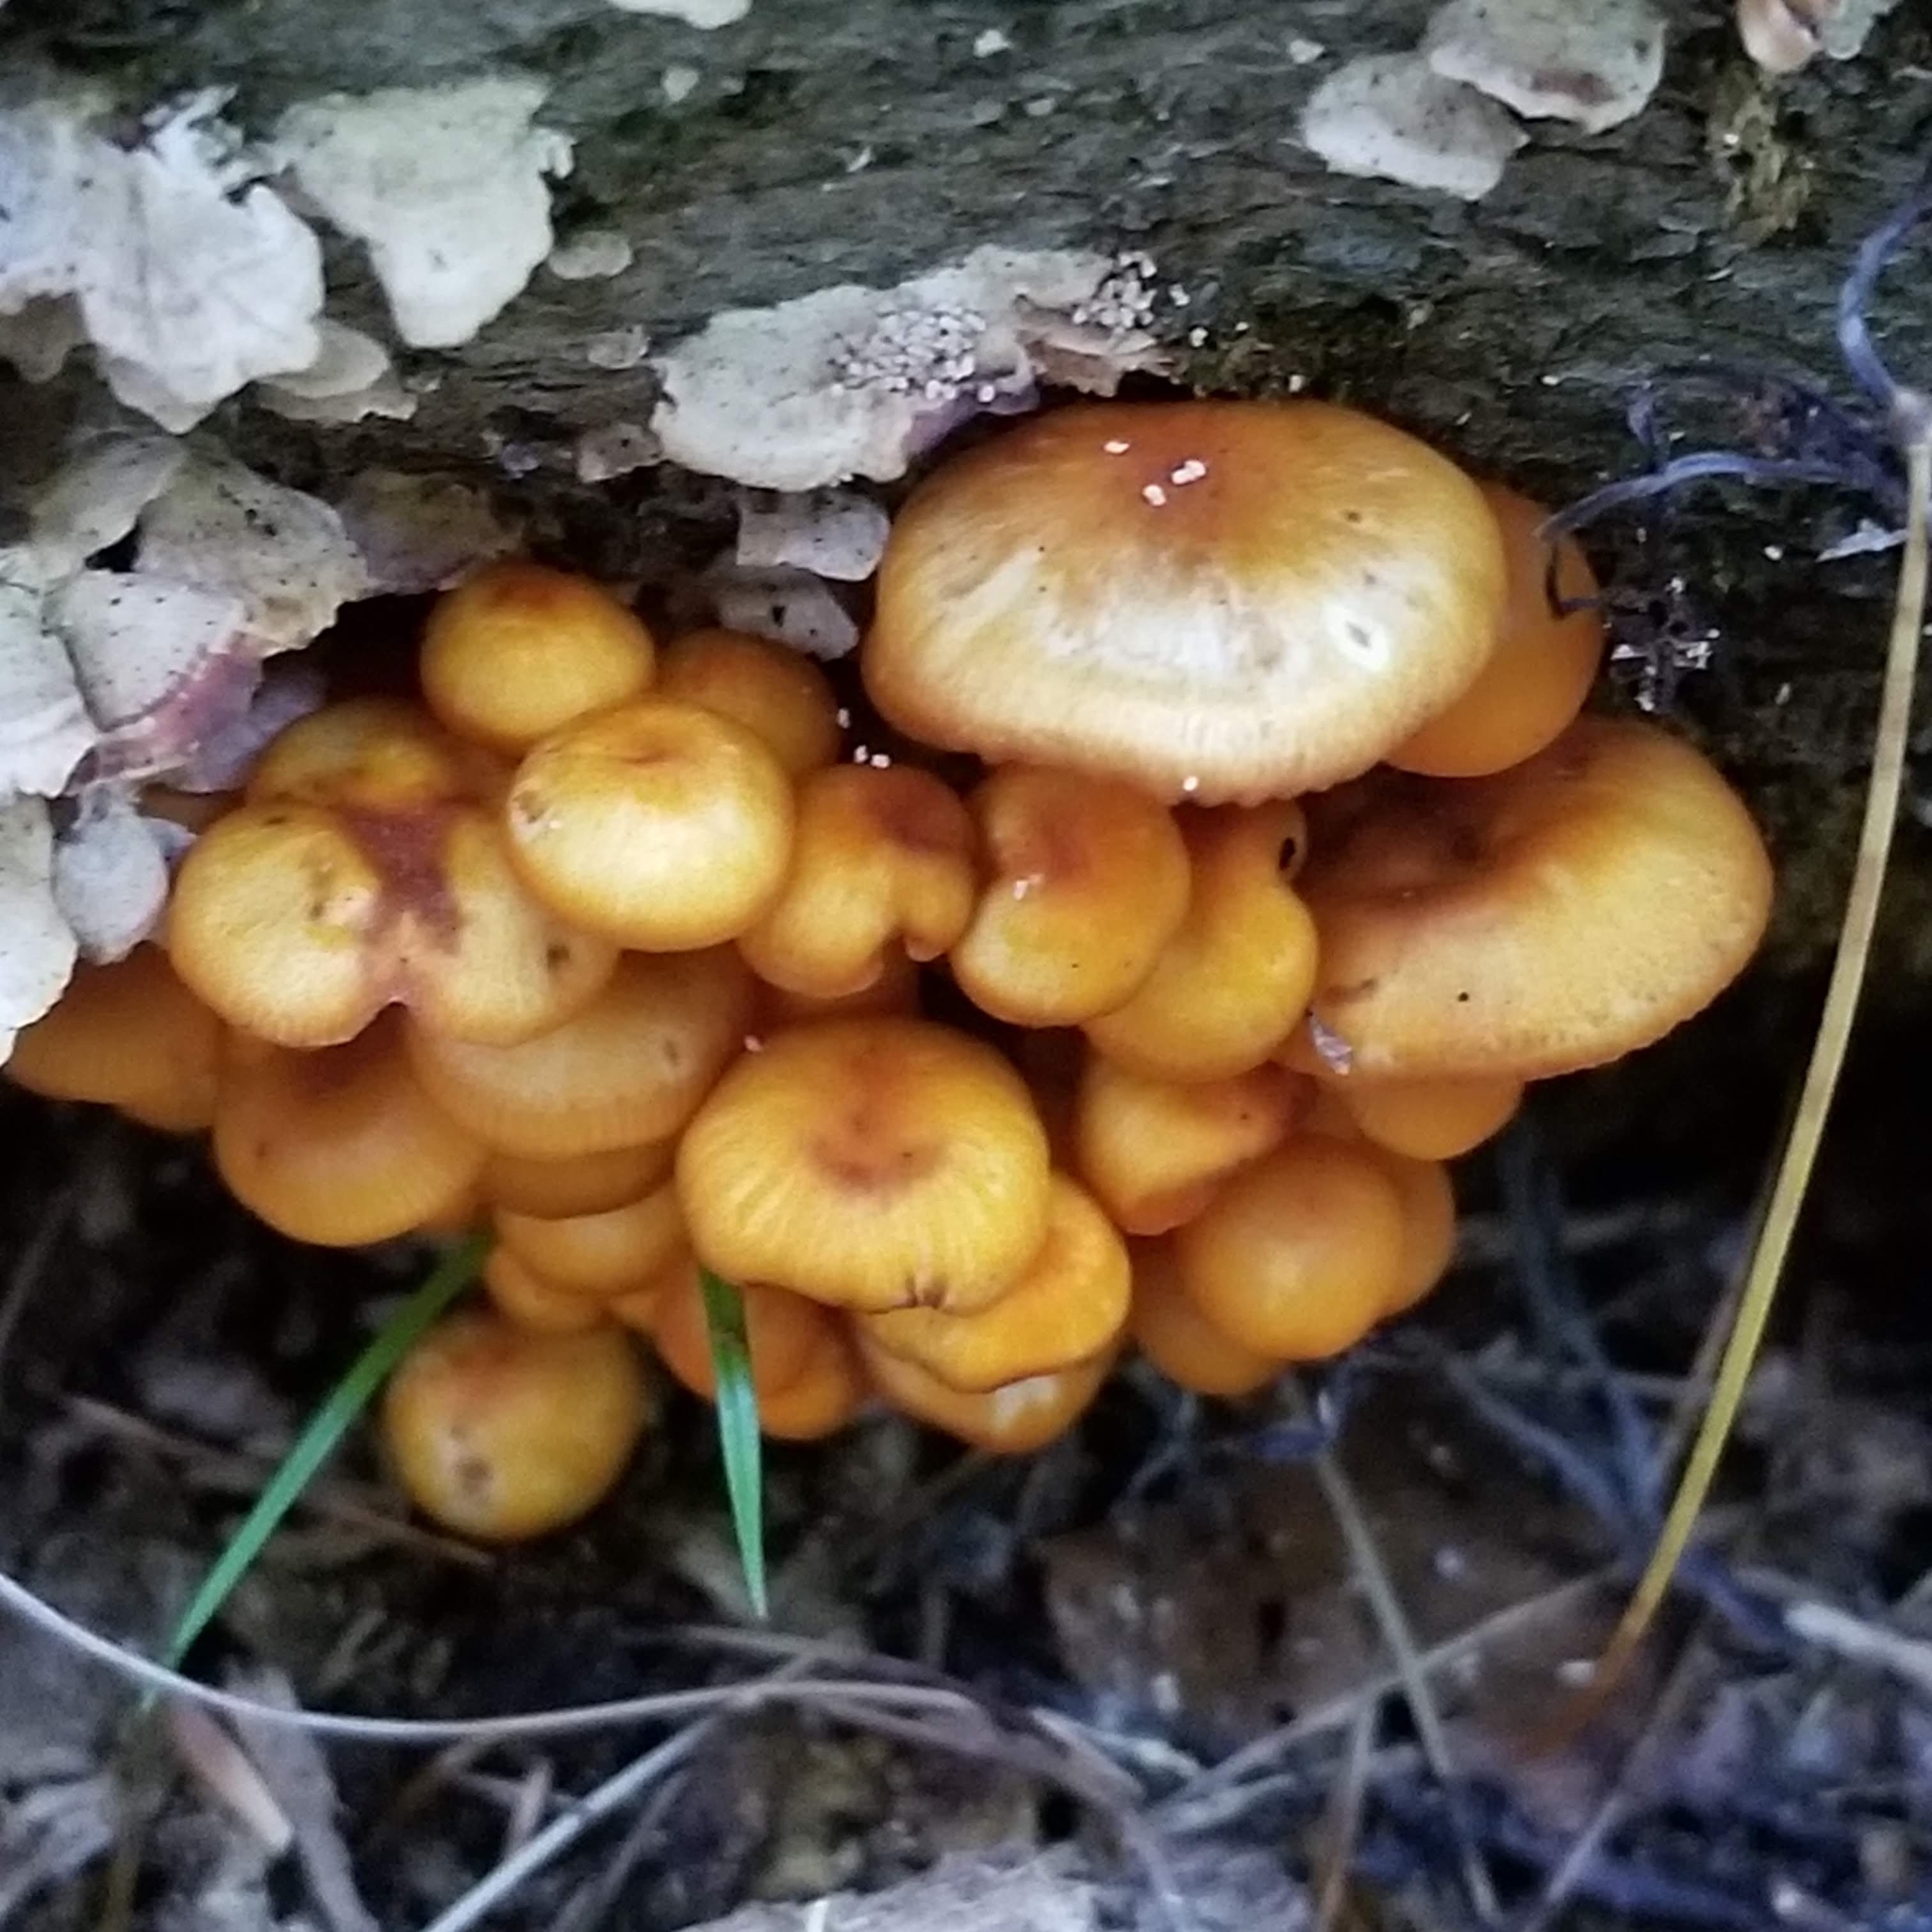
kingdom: Fungi
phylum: Basidiomycota
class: Agaricomycetes
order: Agaricales
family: Mycenaceae
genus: Mycena
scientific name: Mycena leaiana
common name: Orange mycena
